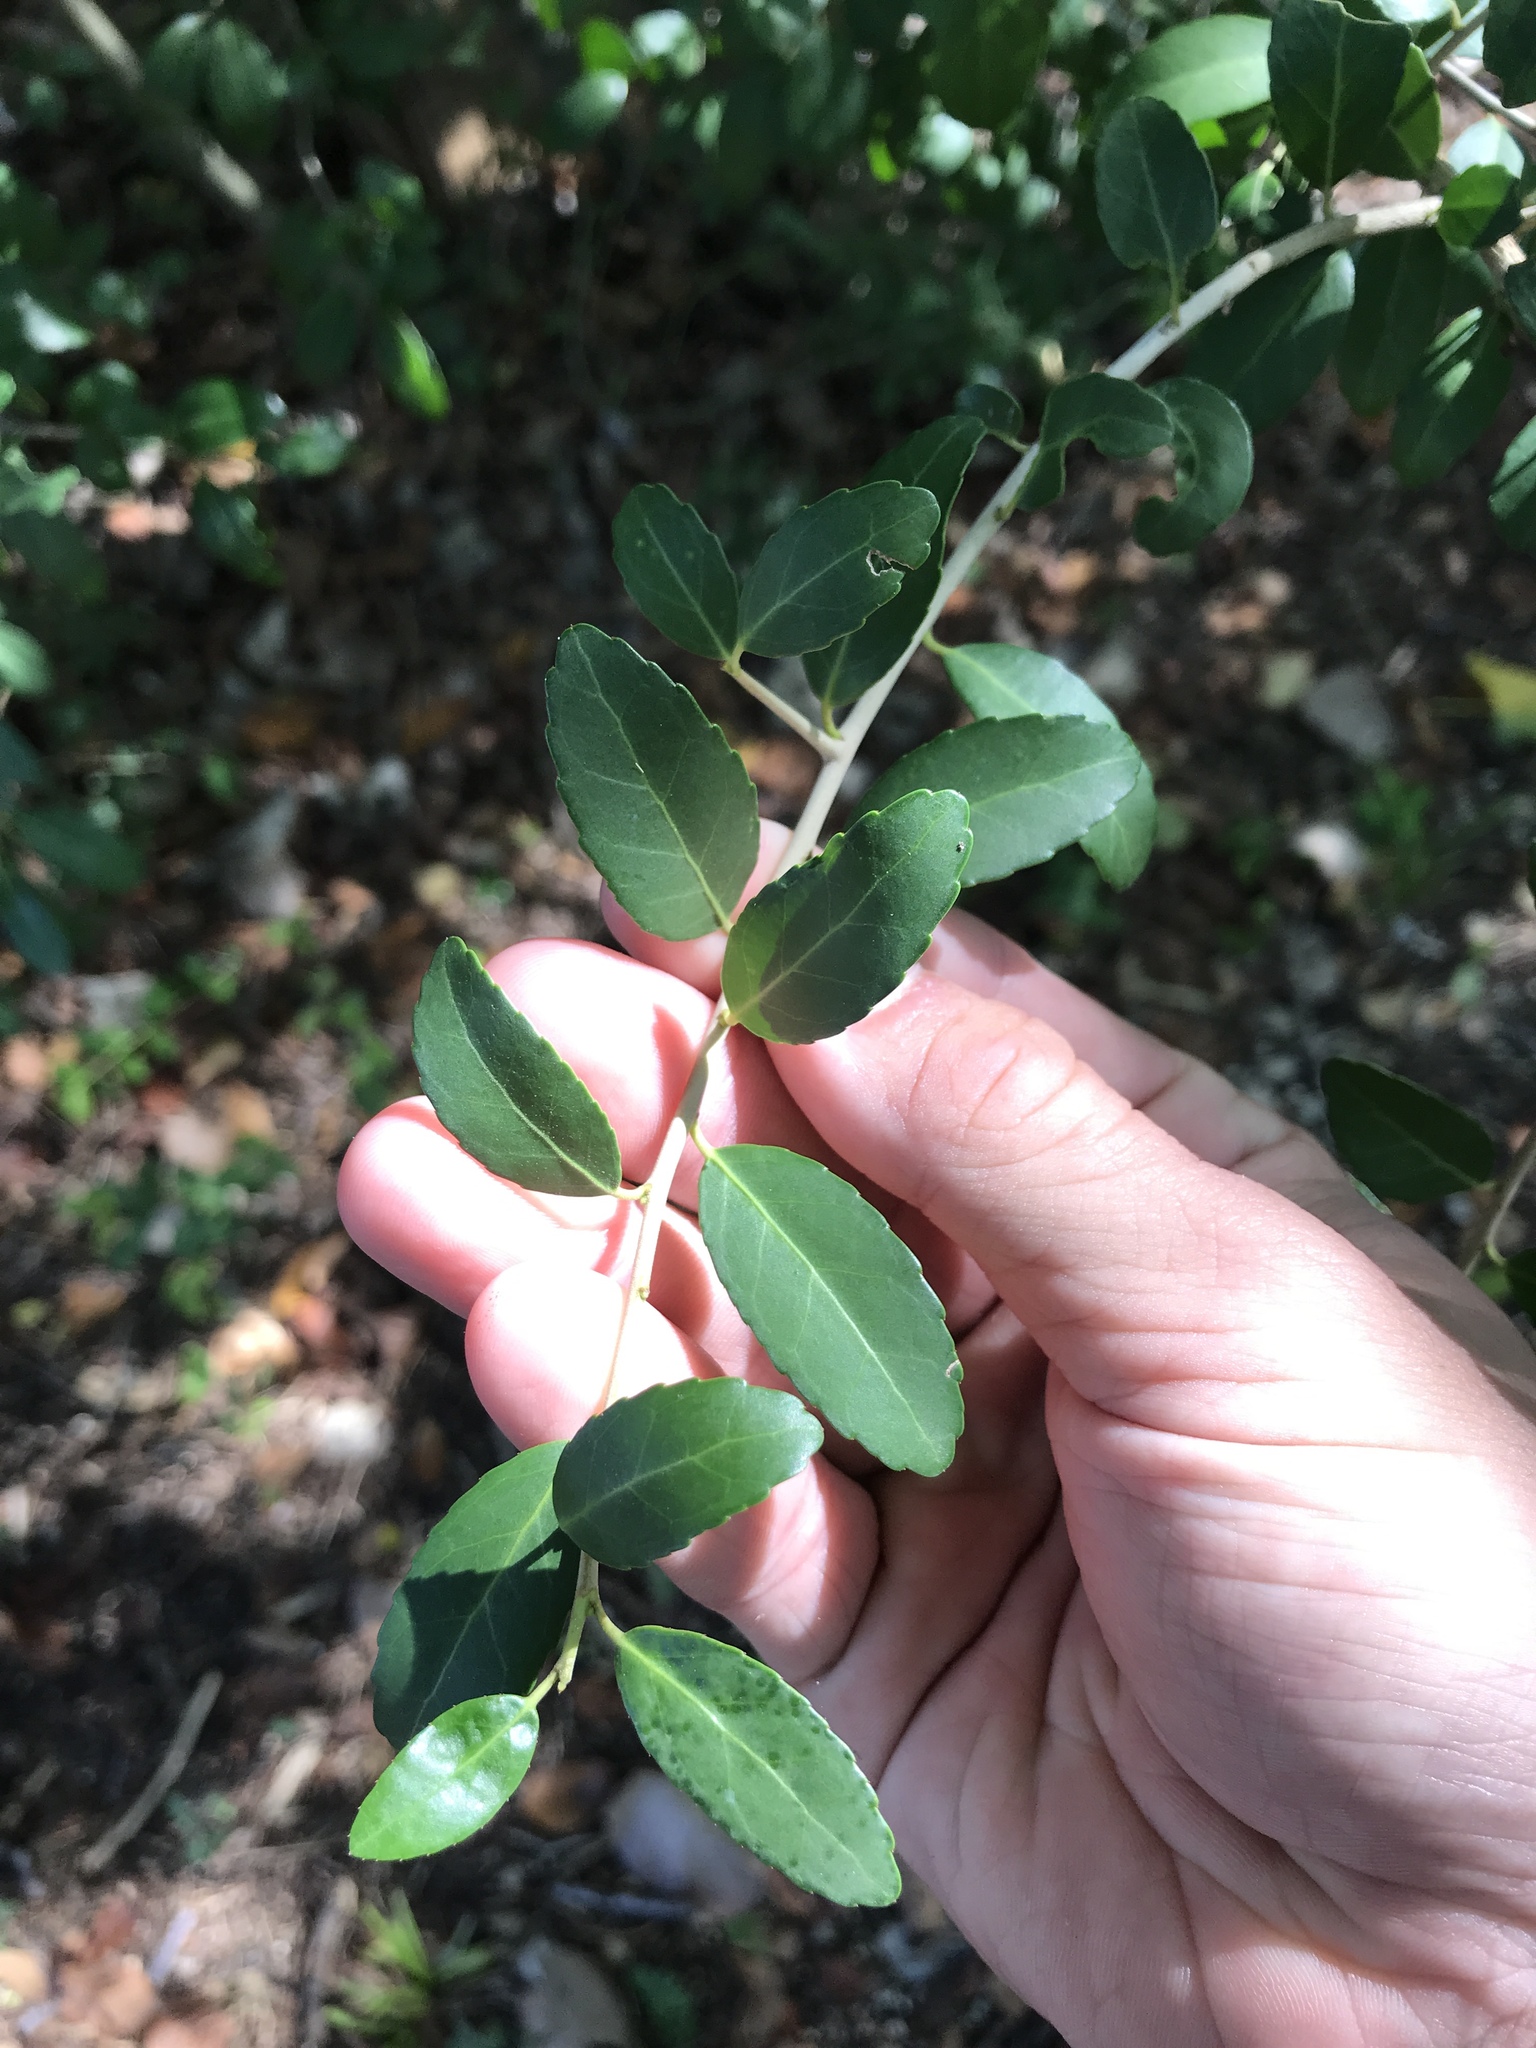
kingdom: Plantae
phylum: Tracheophyta
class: Magnoliopsida
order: Aquifoliales
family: Aquifoliaceae
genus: Ilex
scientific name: Ilex vomitoria
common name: Yaupon holly
